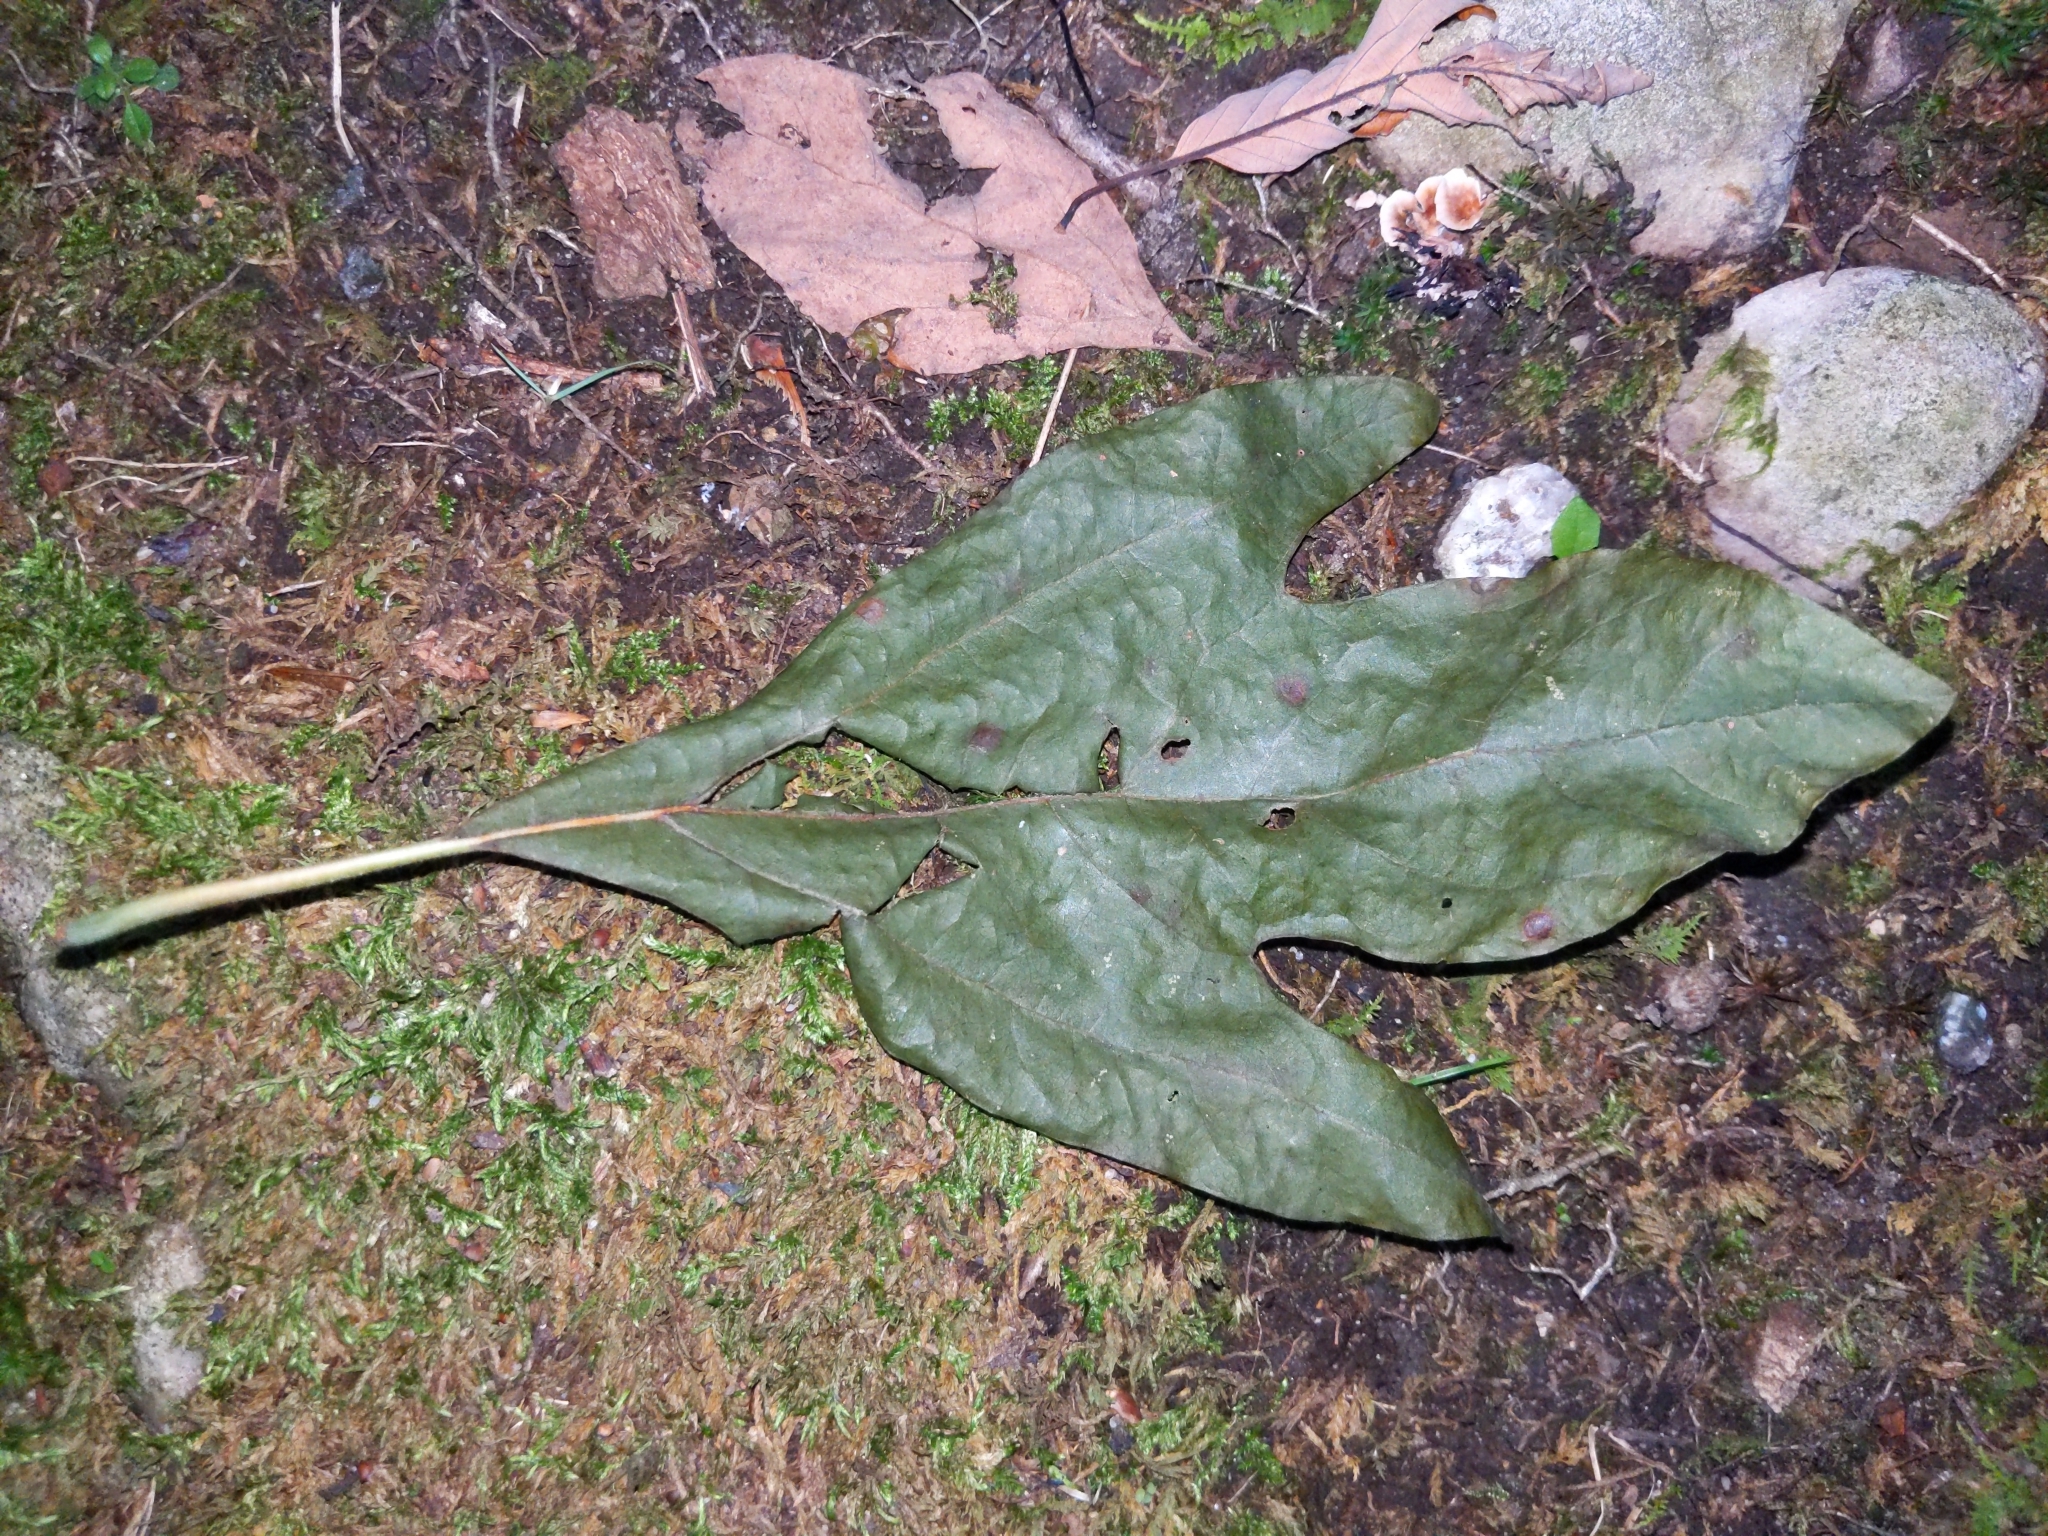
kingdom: Plantae
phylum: Tracheophyta
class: Magnoliopsida
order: Laurales
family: Lauraceae
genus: Sassafras
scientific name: Sassafras albidum
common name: Sassafras
